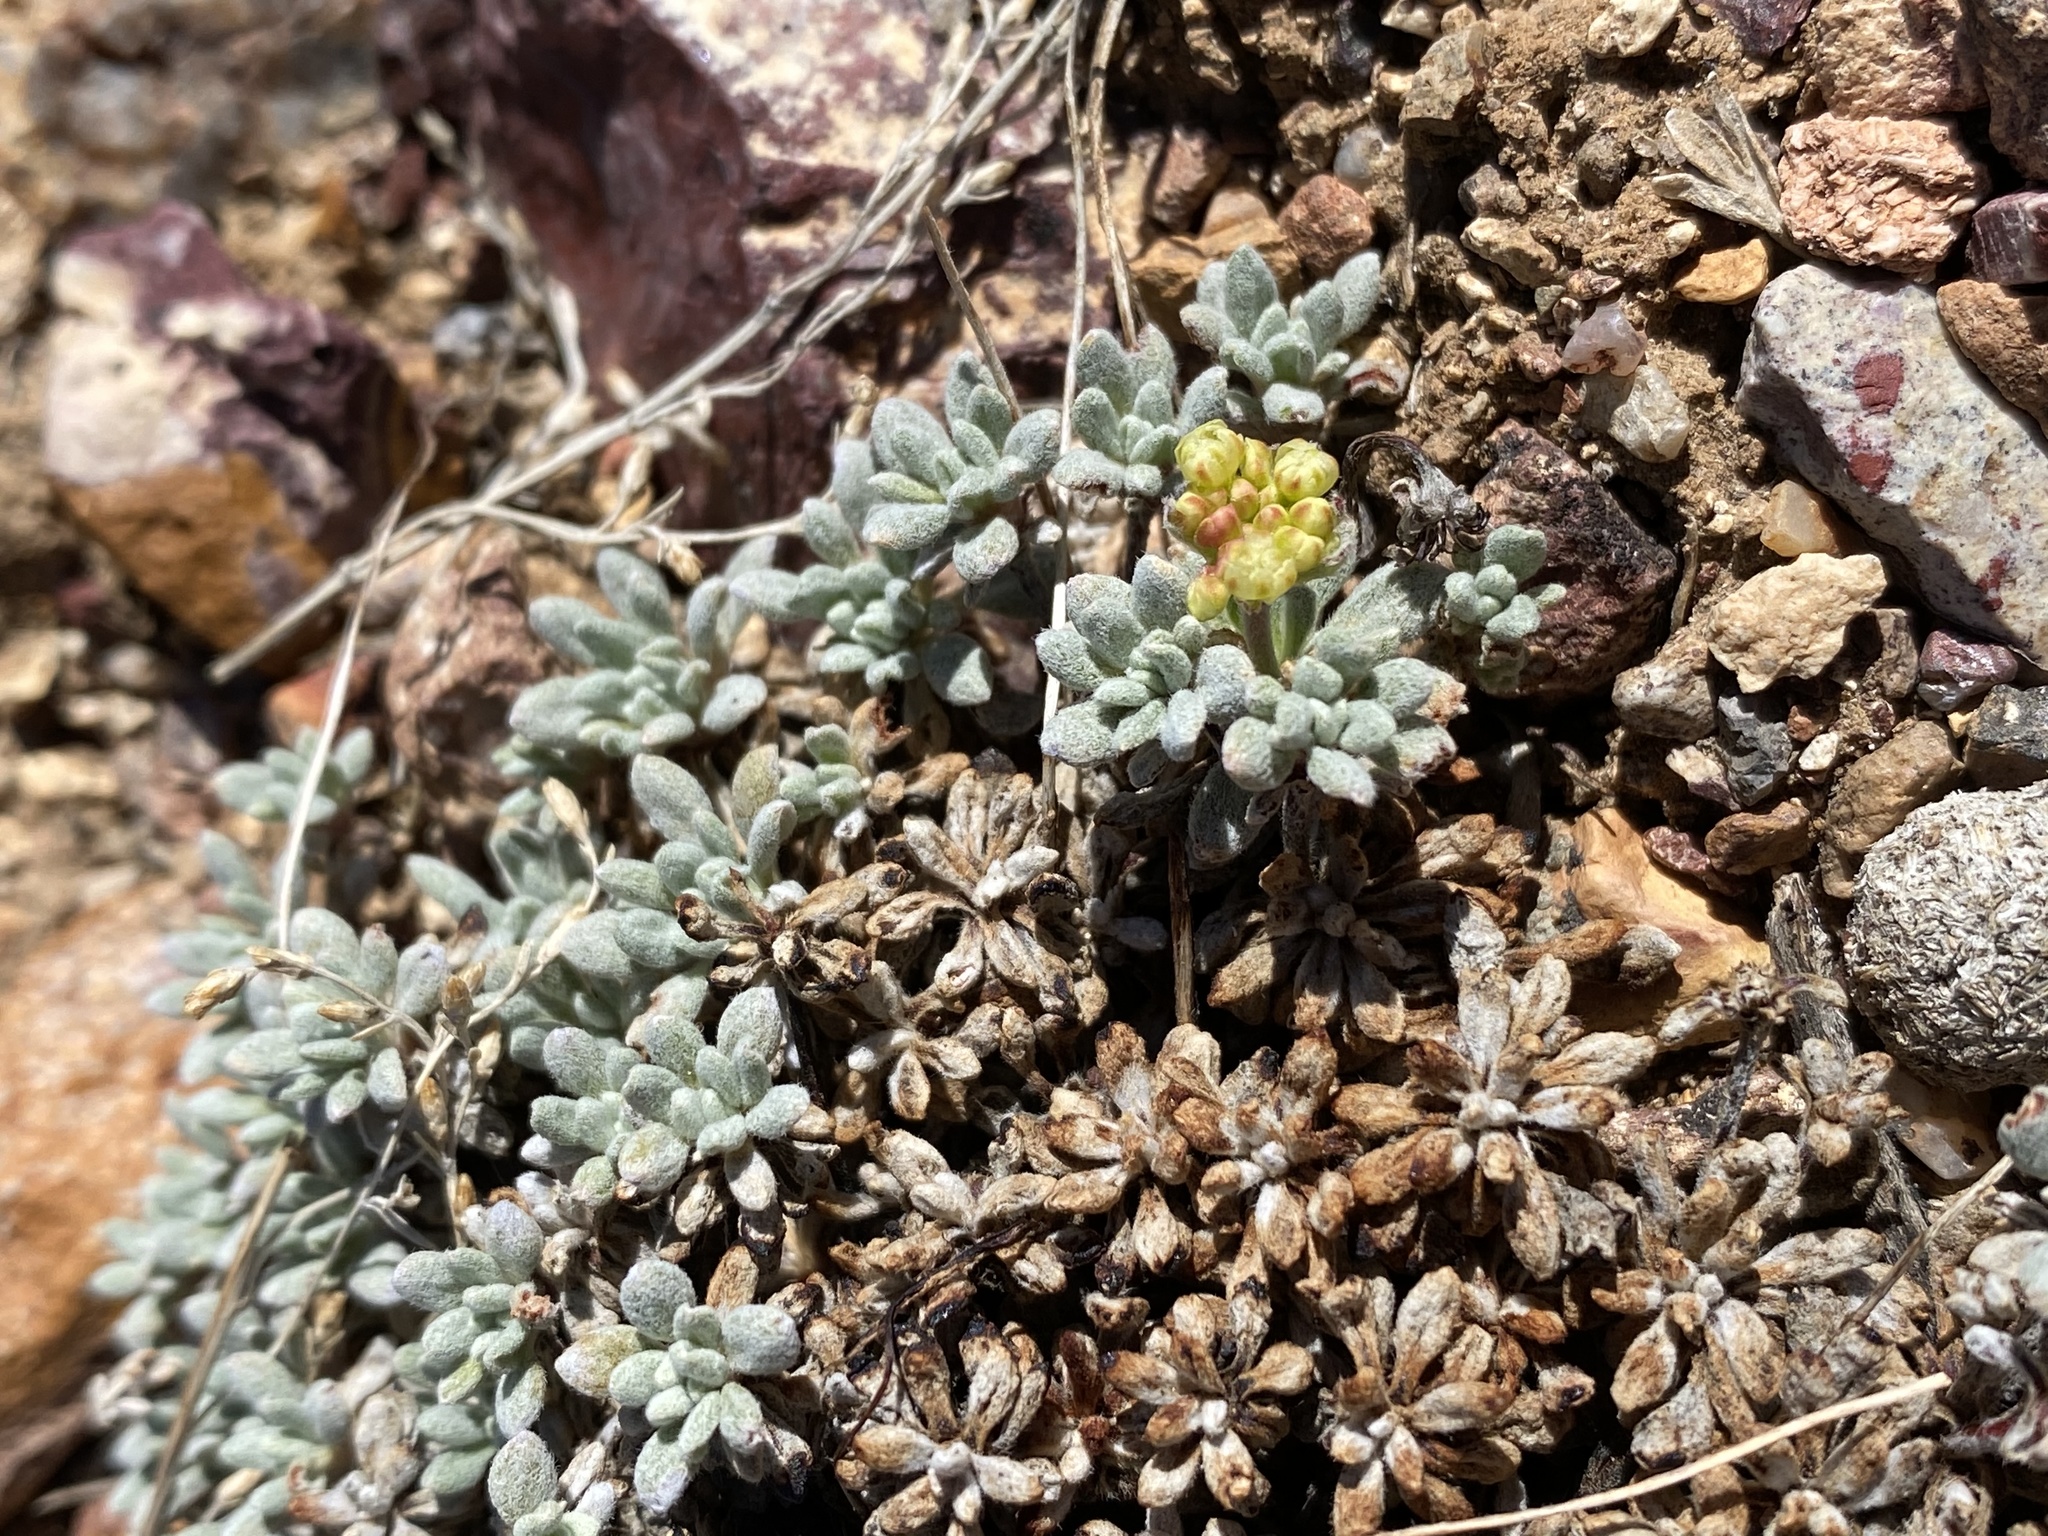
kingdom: Plantae
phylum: Tracheophyta
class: Magnoliopsida
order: Caryophyllales
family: Polygonaceae
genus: Eriogonum
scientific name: Eriogonum caespitosum
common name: Matted wild buckwheat
